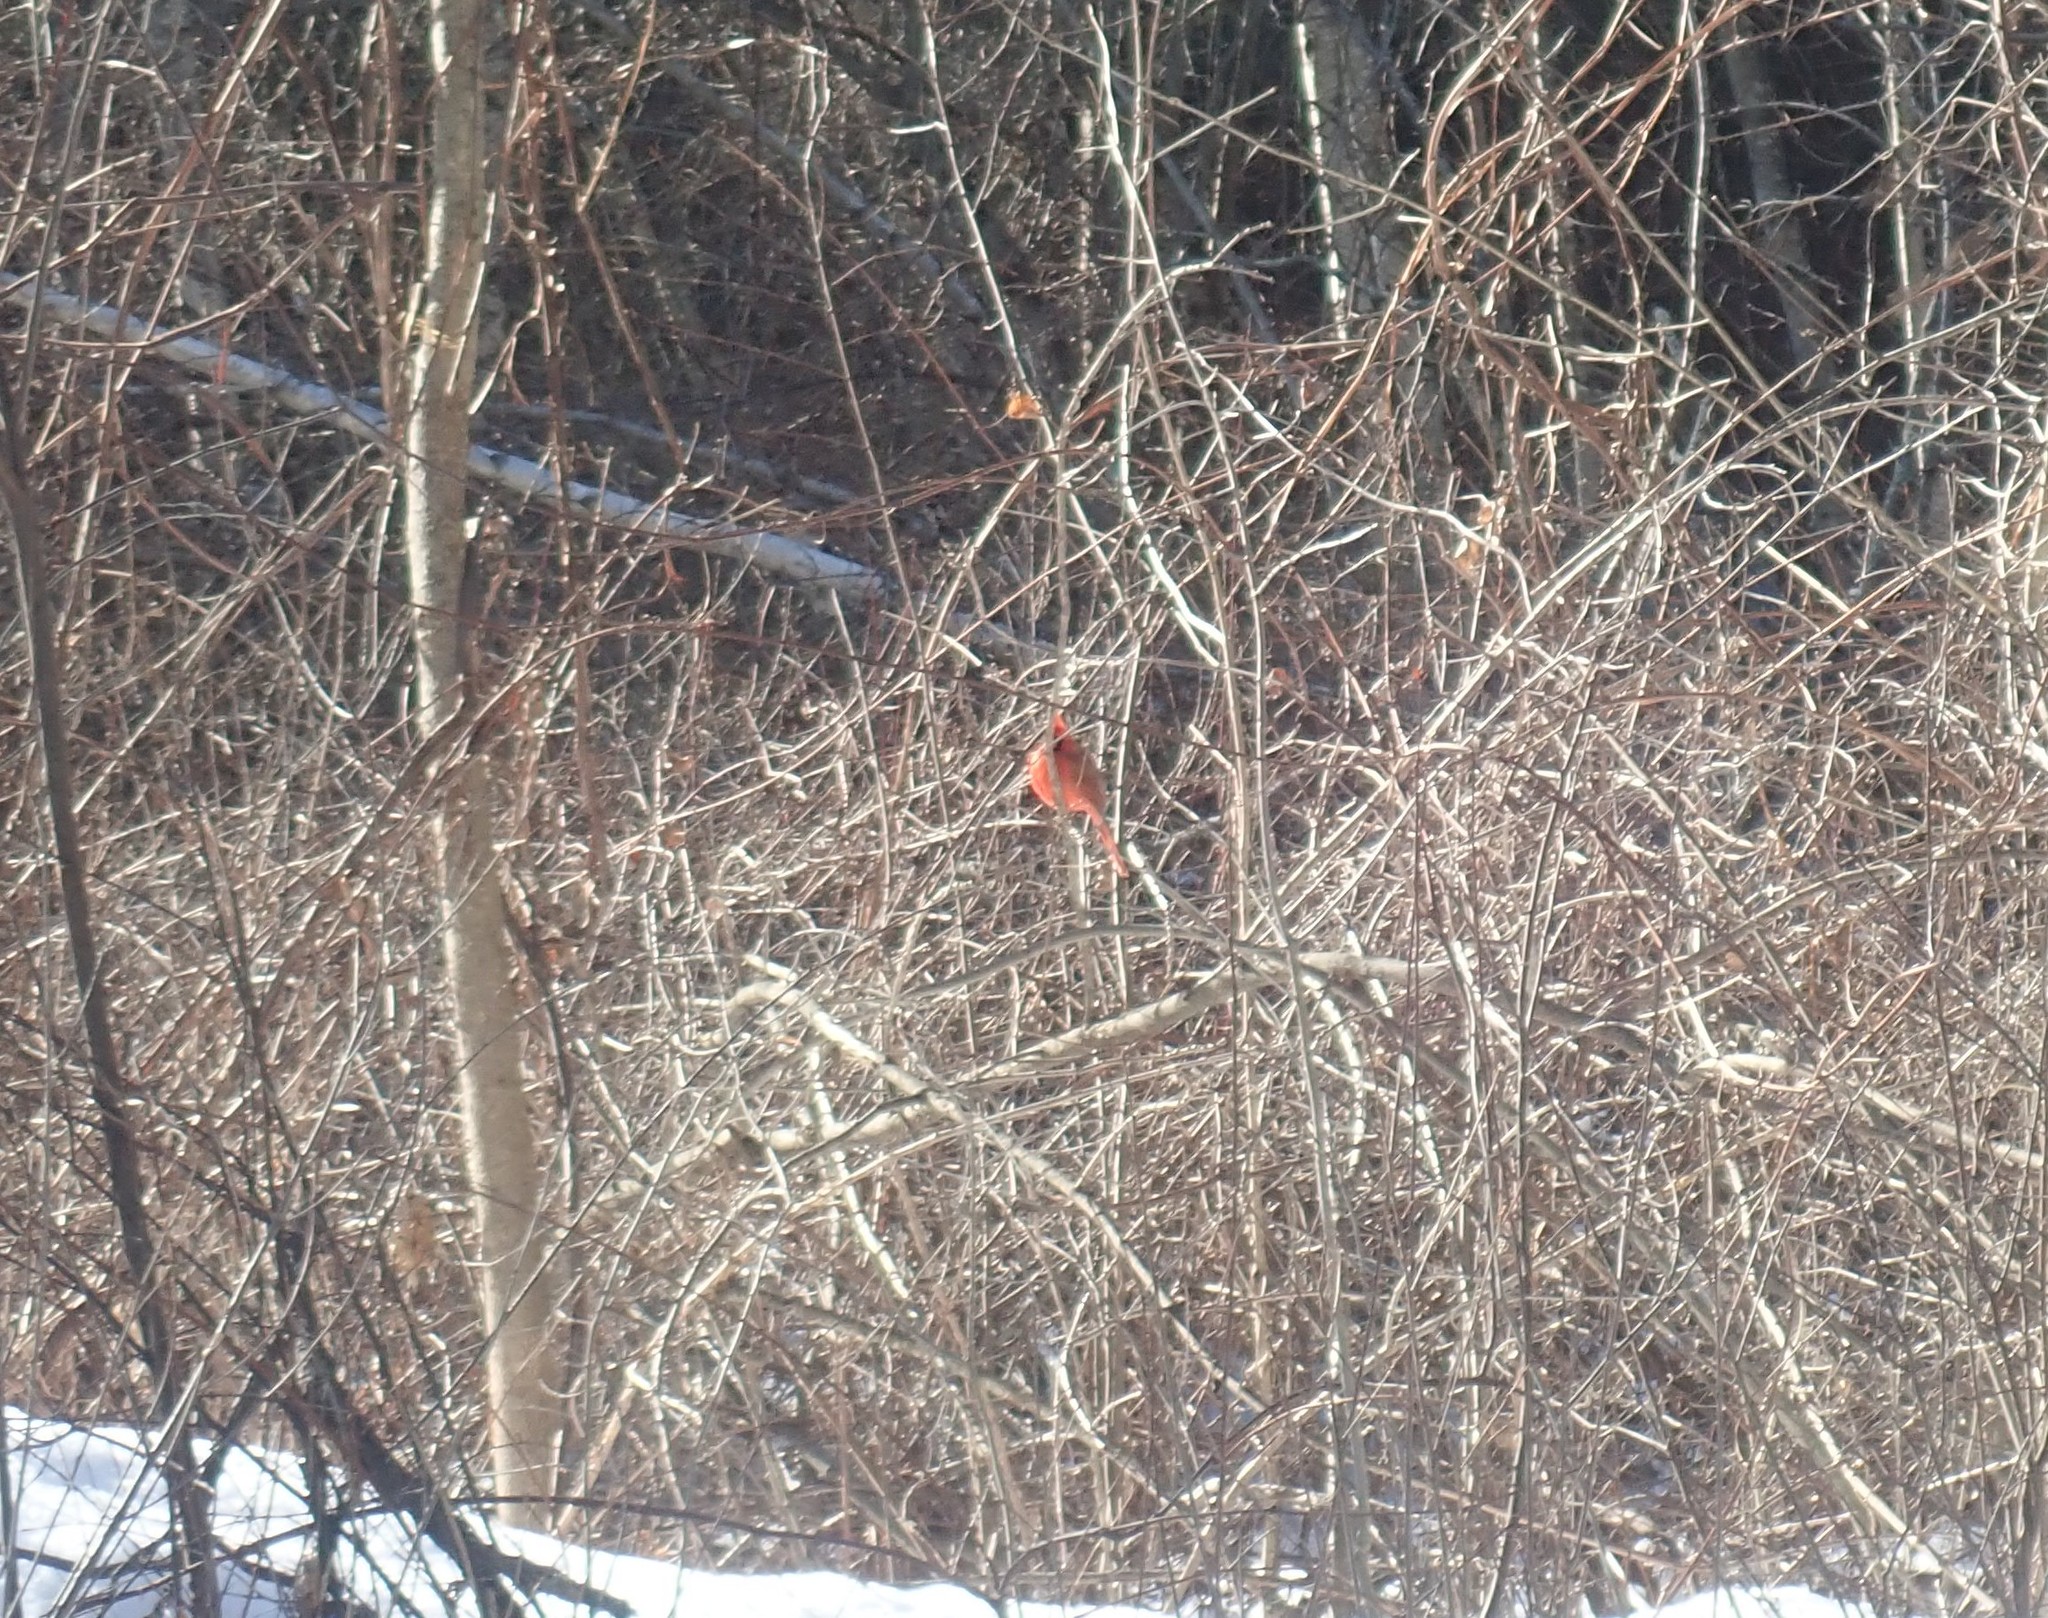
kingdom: Animalia
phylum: Chordata
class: Aves
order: Passeriformes
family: Cardinalidae
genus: Cardinalis
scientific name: Cardinalis cardinalis
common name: Northern cardinal
